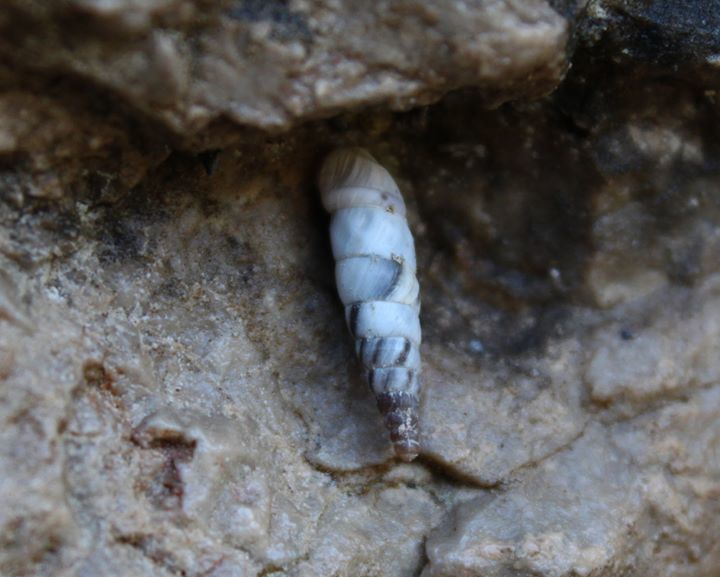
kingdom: Animalia
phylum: Mollusca
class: Gastropoda
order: Stylommatophora
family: Clausiliidae
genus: Albinaria
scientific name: Albinaria scopulosa
